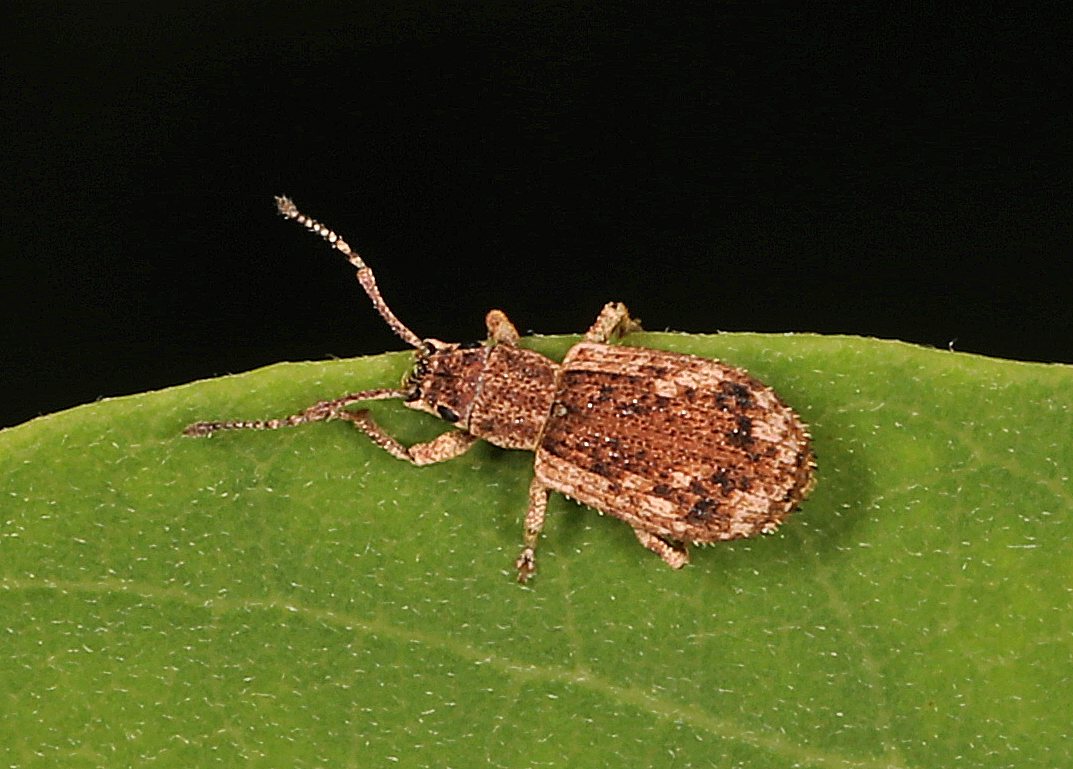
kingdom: Animalia
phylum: Arthropoda
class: Insecta
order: Coleoptera
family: Curculionidae
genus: Pseudoedophrys
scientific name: Pseudoedophrys hilleri
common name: Weevil
